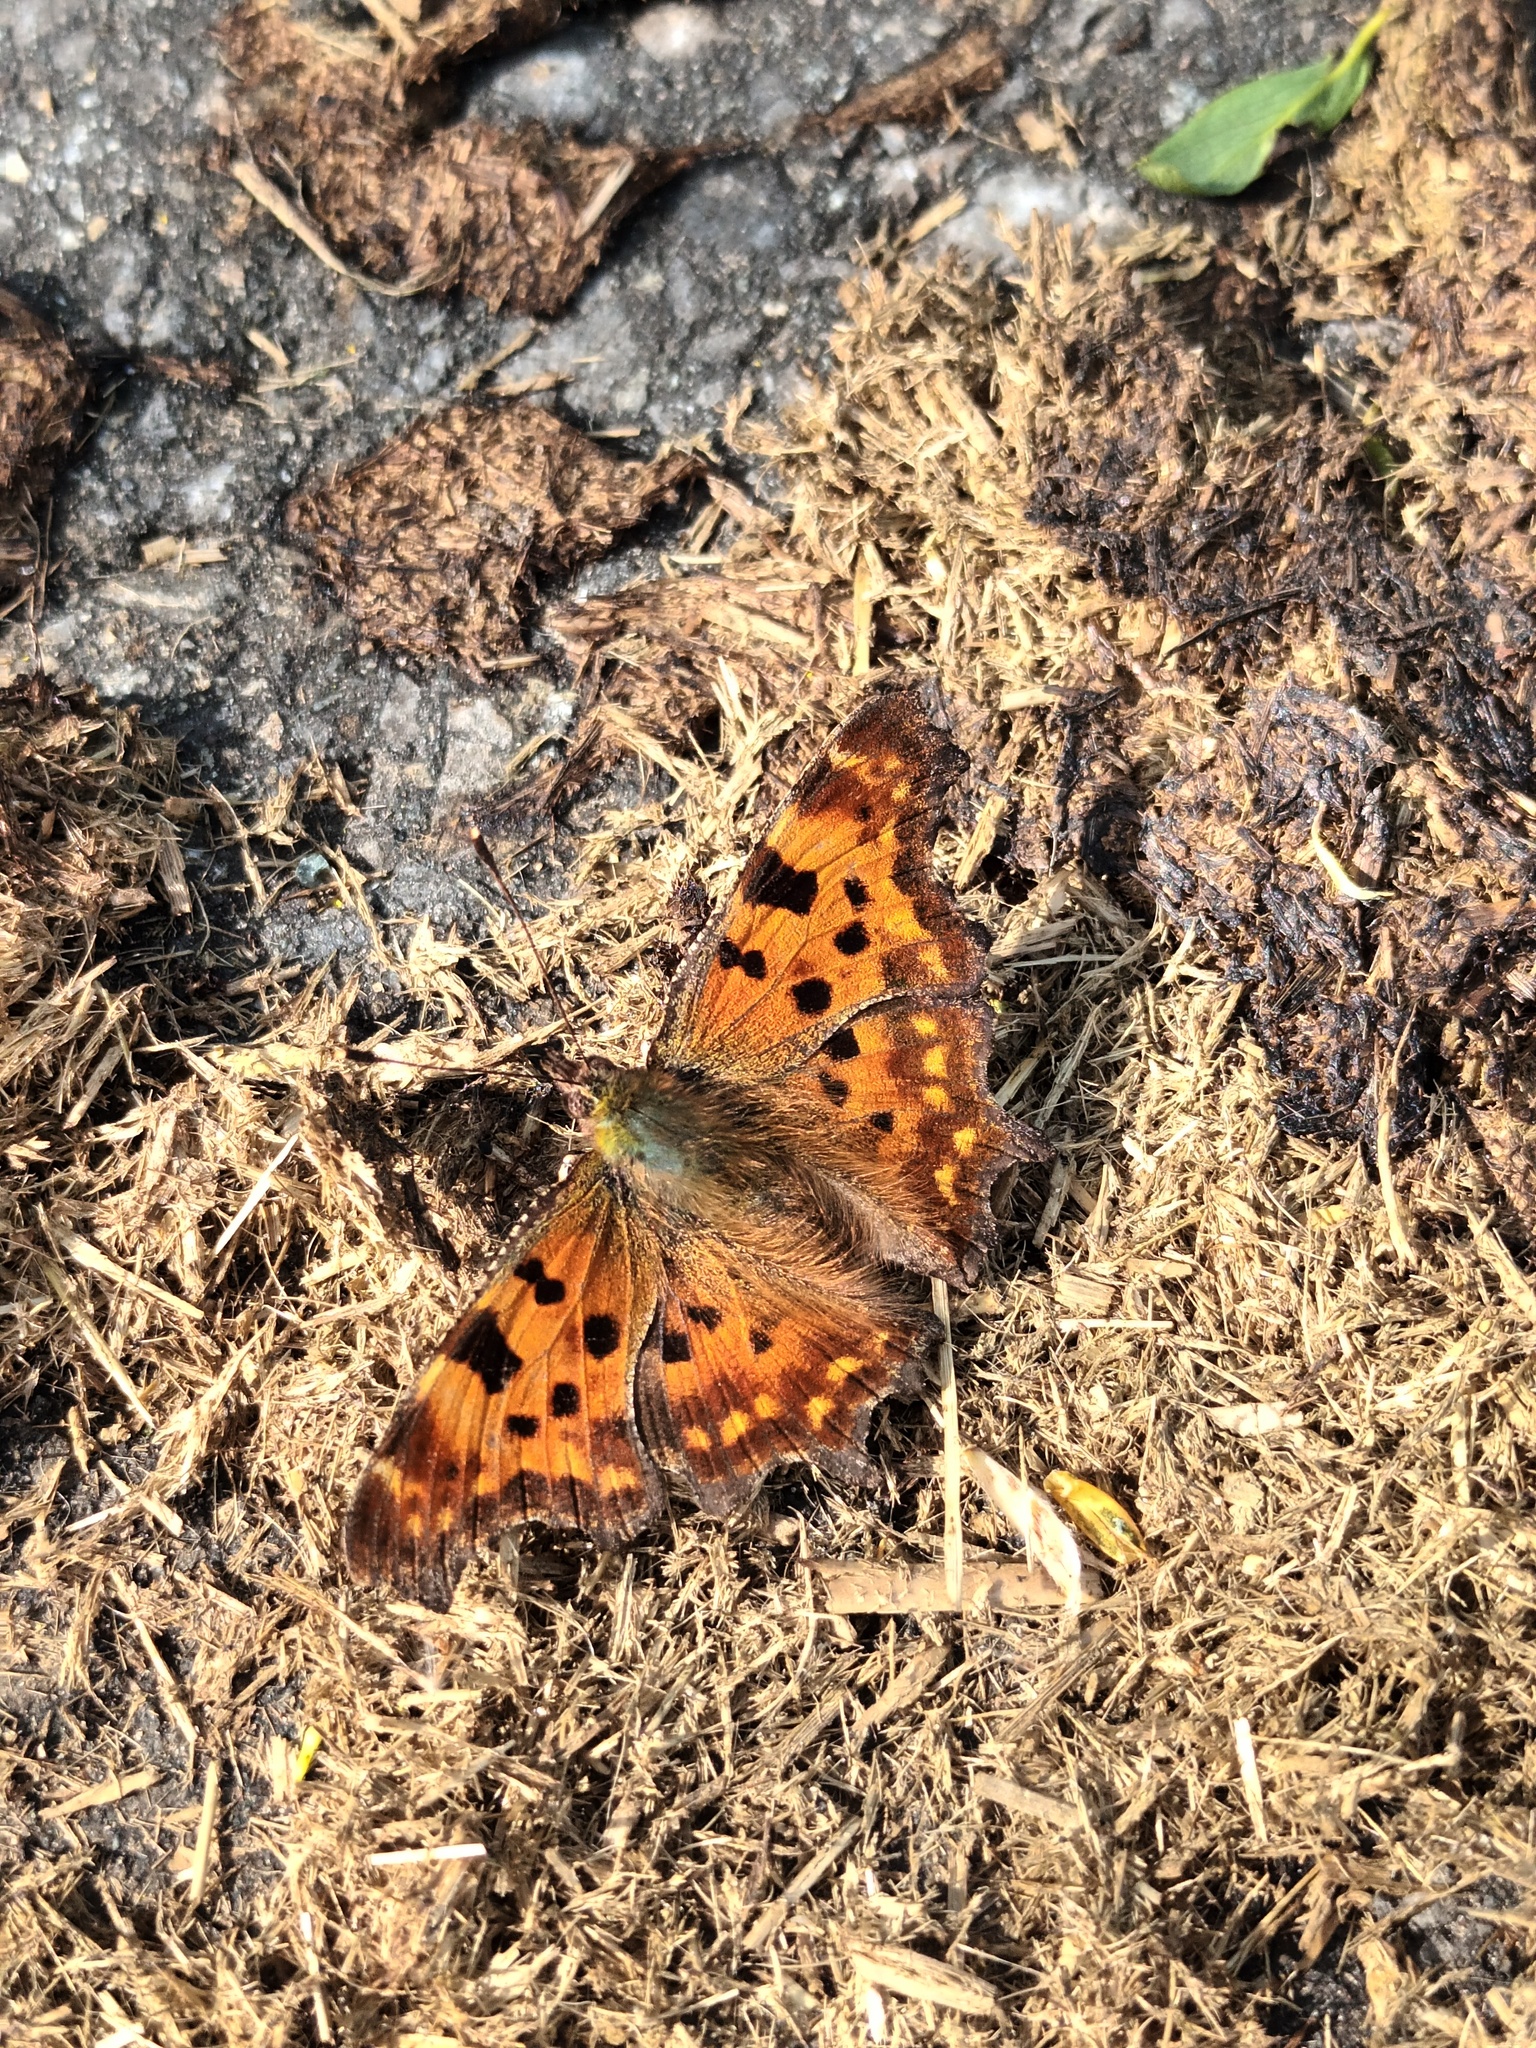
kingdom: Animalia
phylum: Arthropoda
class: Insecta
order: Lepidoptera
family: Nymphalidae
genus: Polygonia
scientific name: Polygonia c-album
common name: Comma
